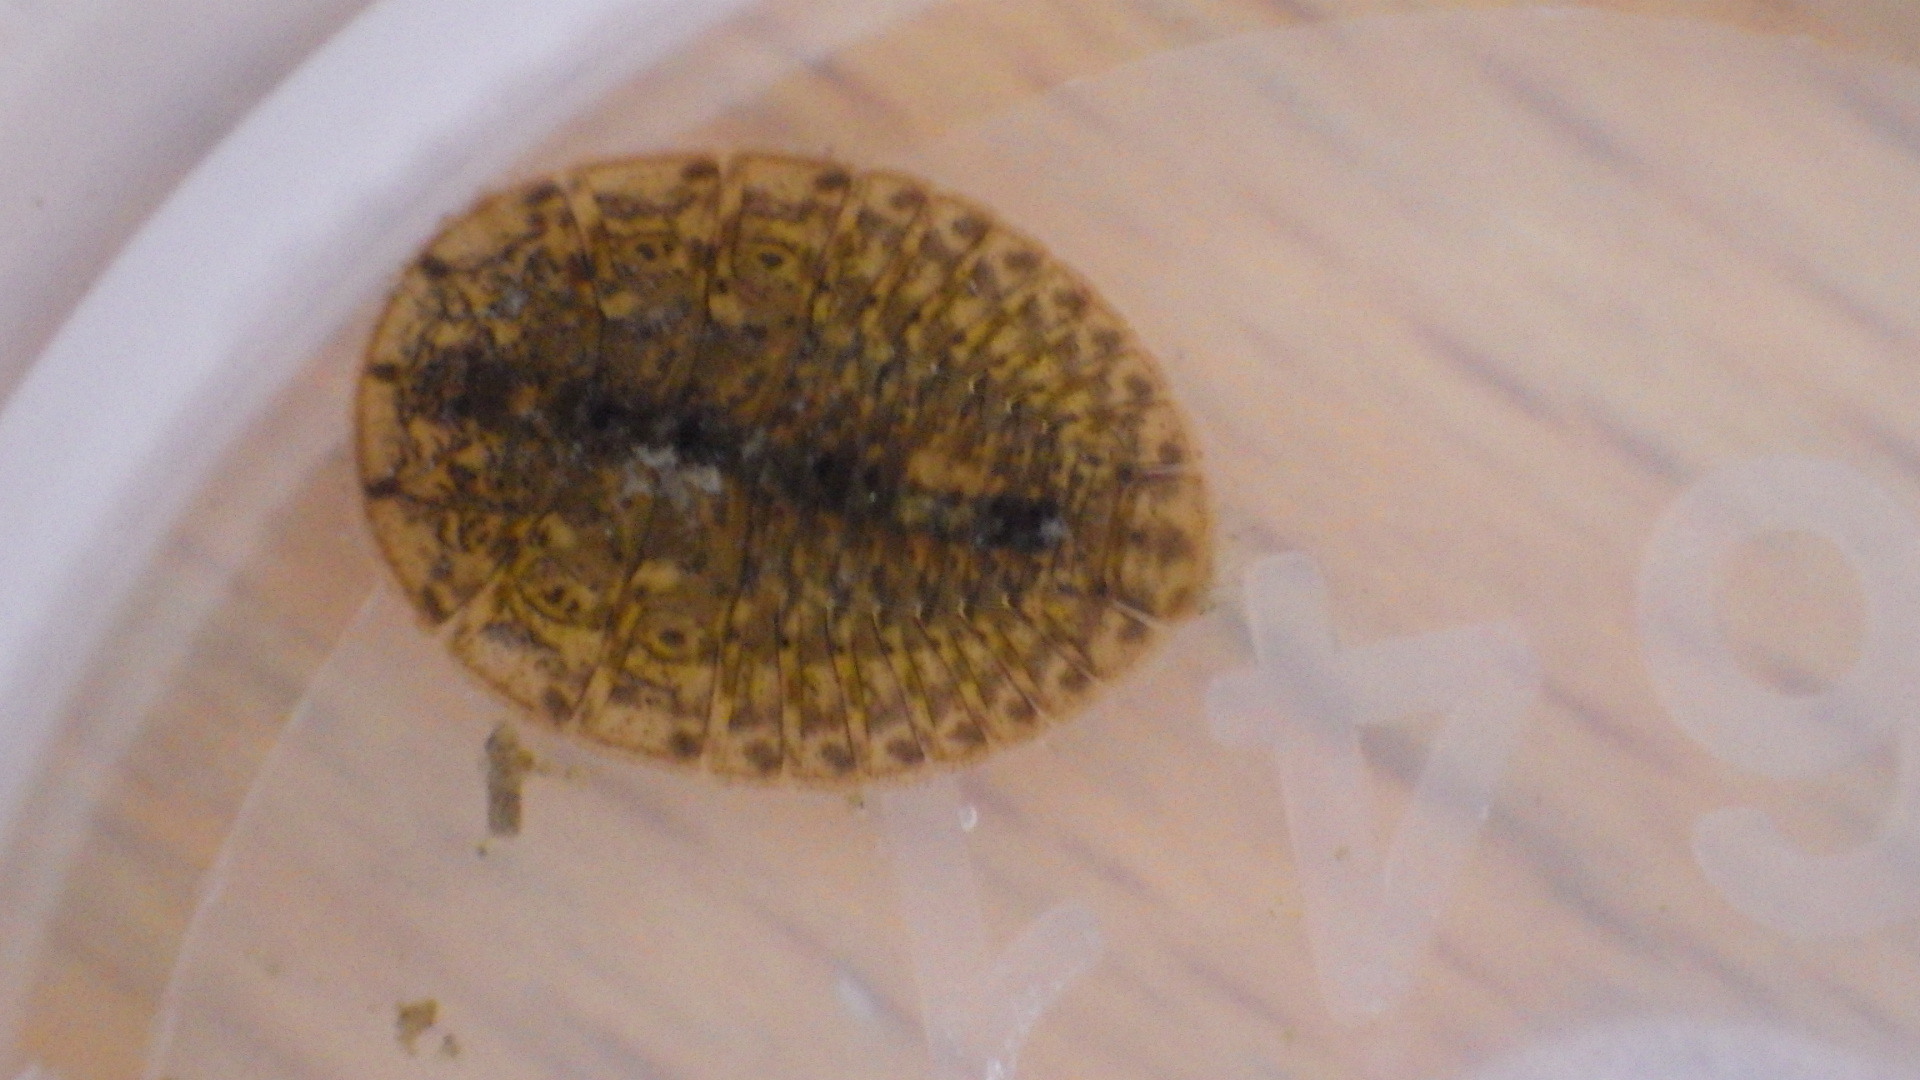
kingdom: Animalia
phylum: Arthropoda
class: Insecta
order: Coleoptera
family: Psephenidae
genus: Psephenus
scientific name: Psephenus herricki
